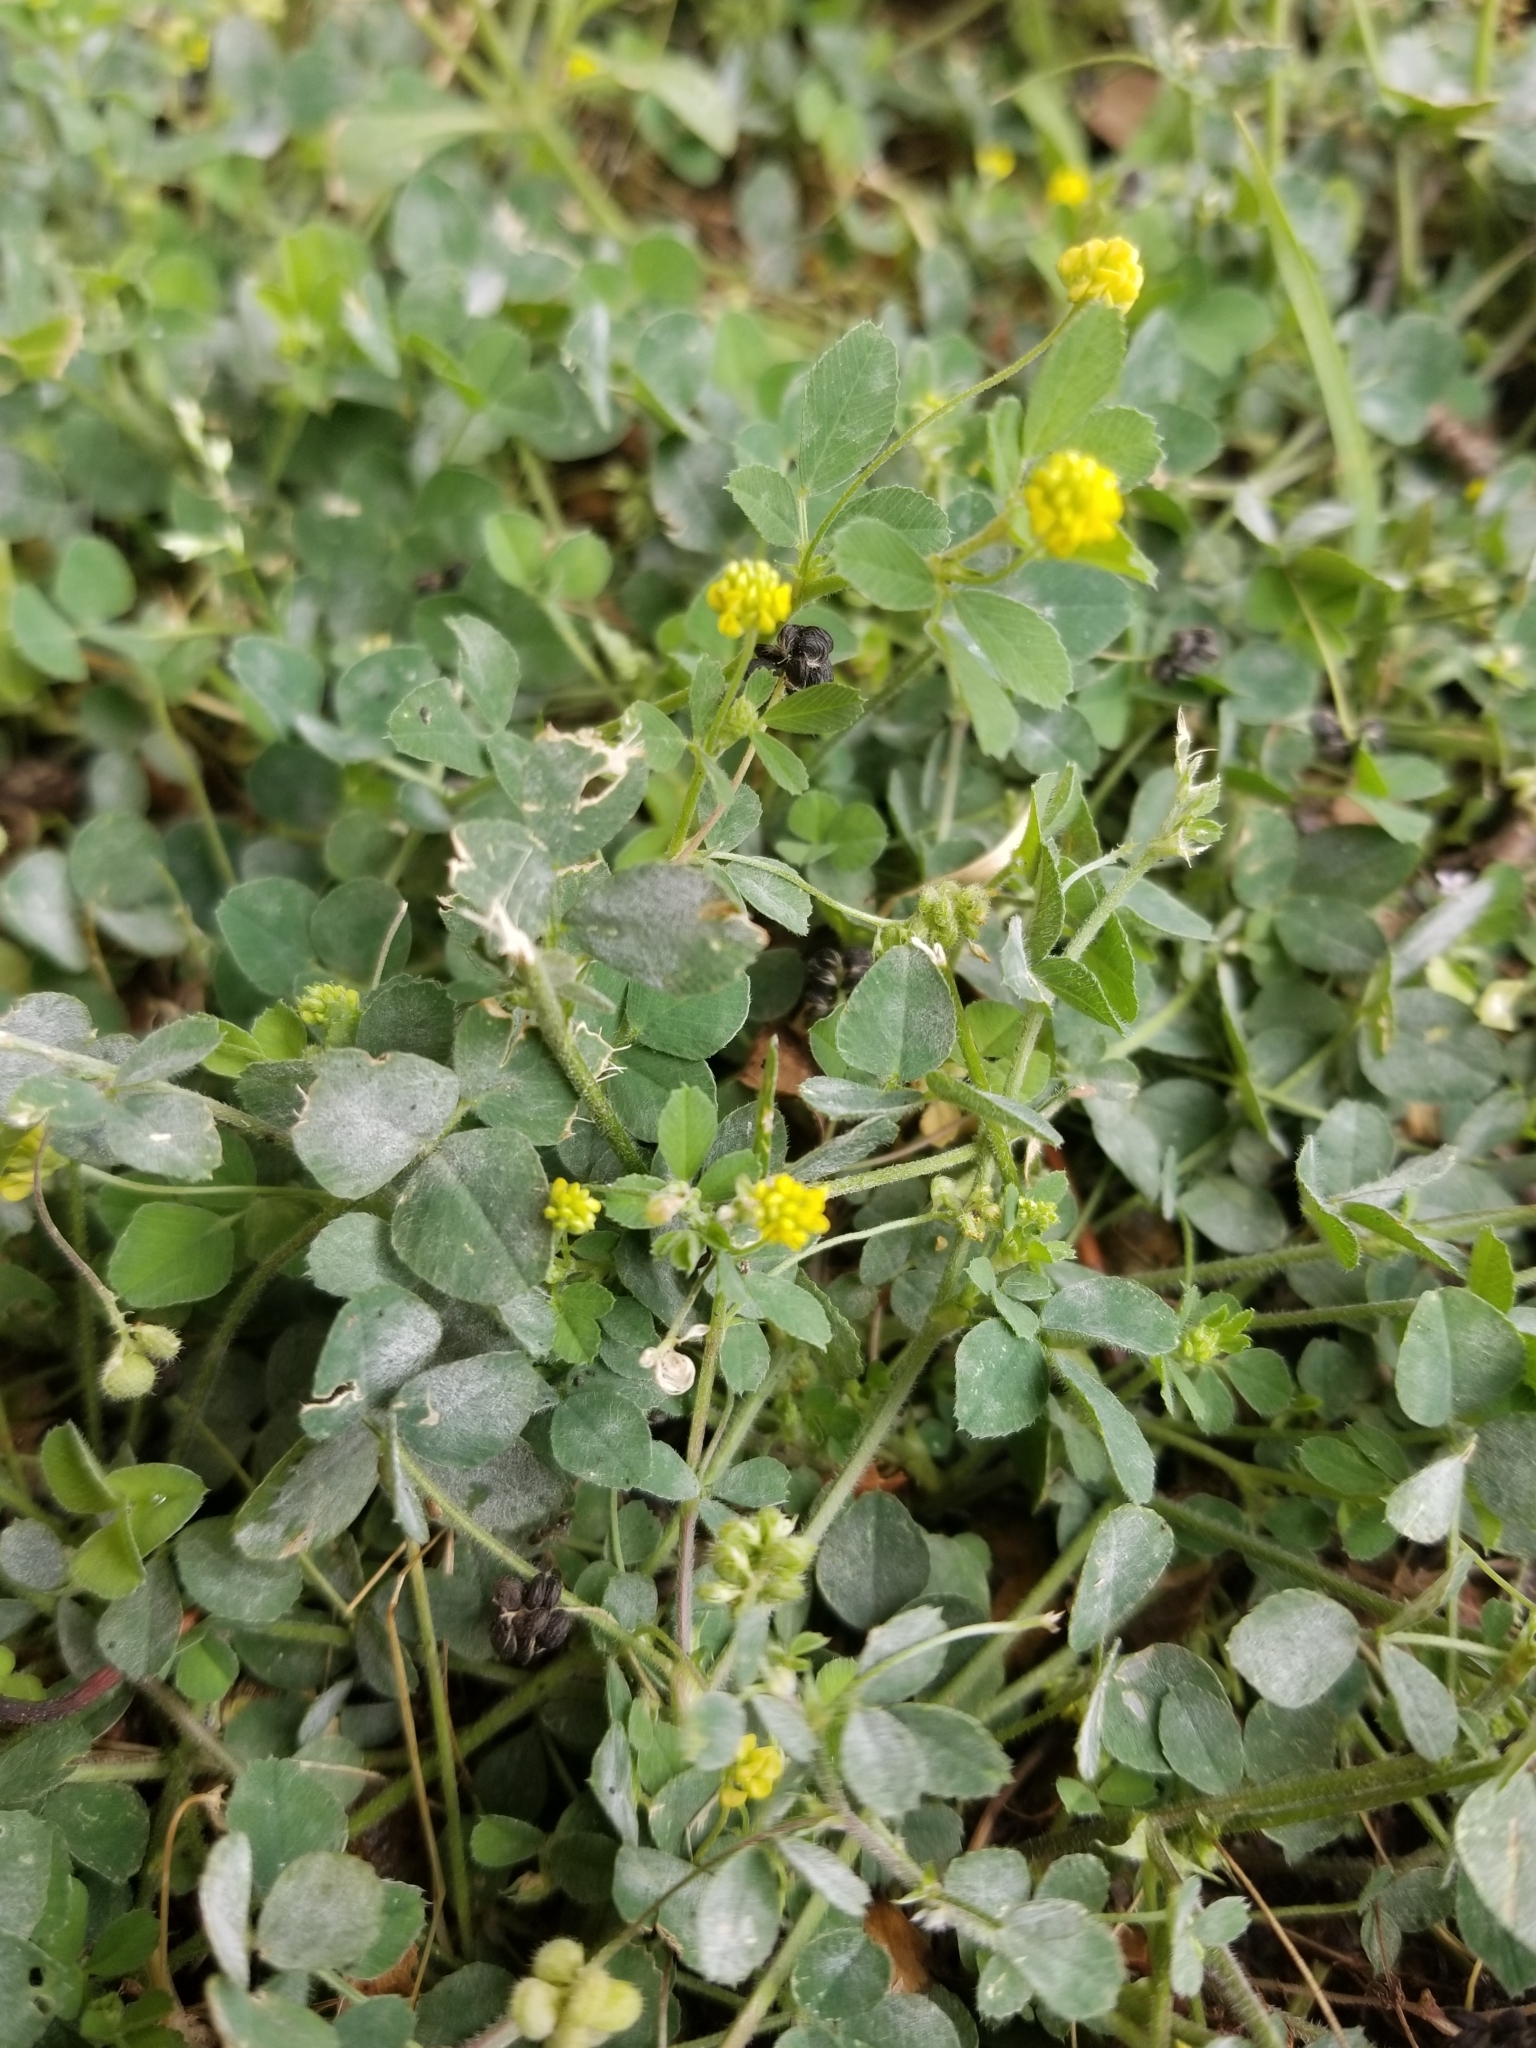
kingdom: Plantae
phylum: Tracheophyta
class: Magnoliopsida
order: Fabales
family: Fabaceae
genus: Medicago
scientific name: Medicago lupulina
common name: Black medick
